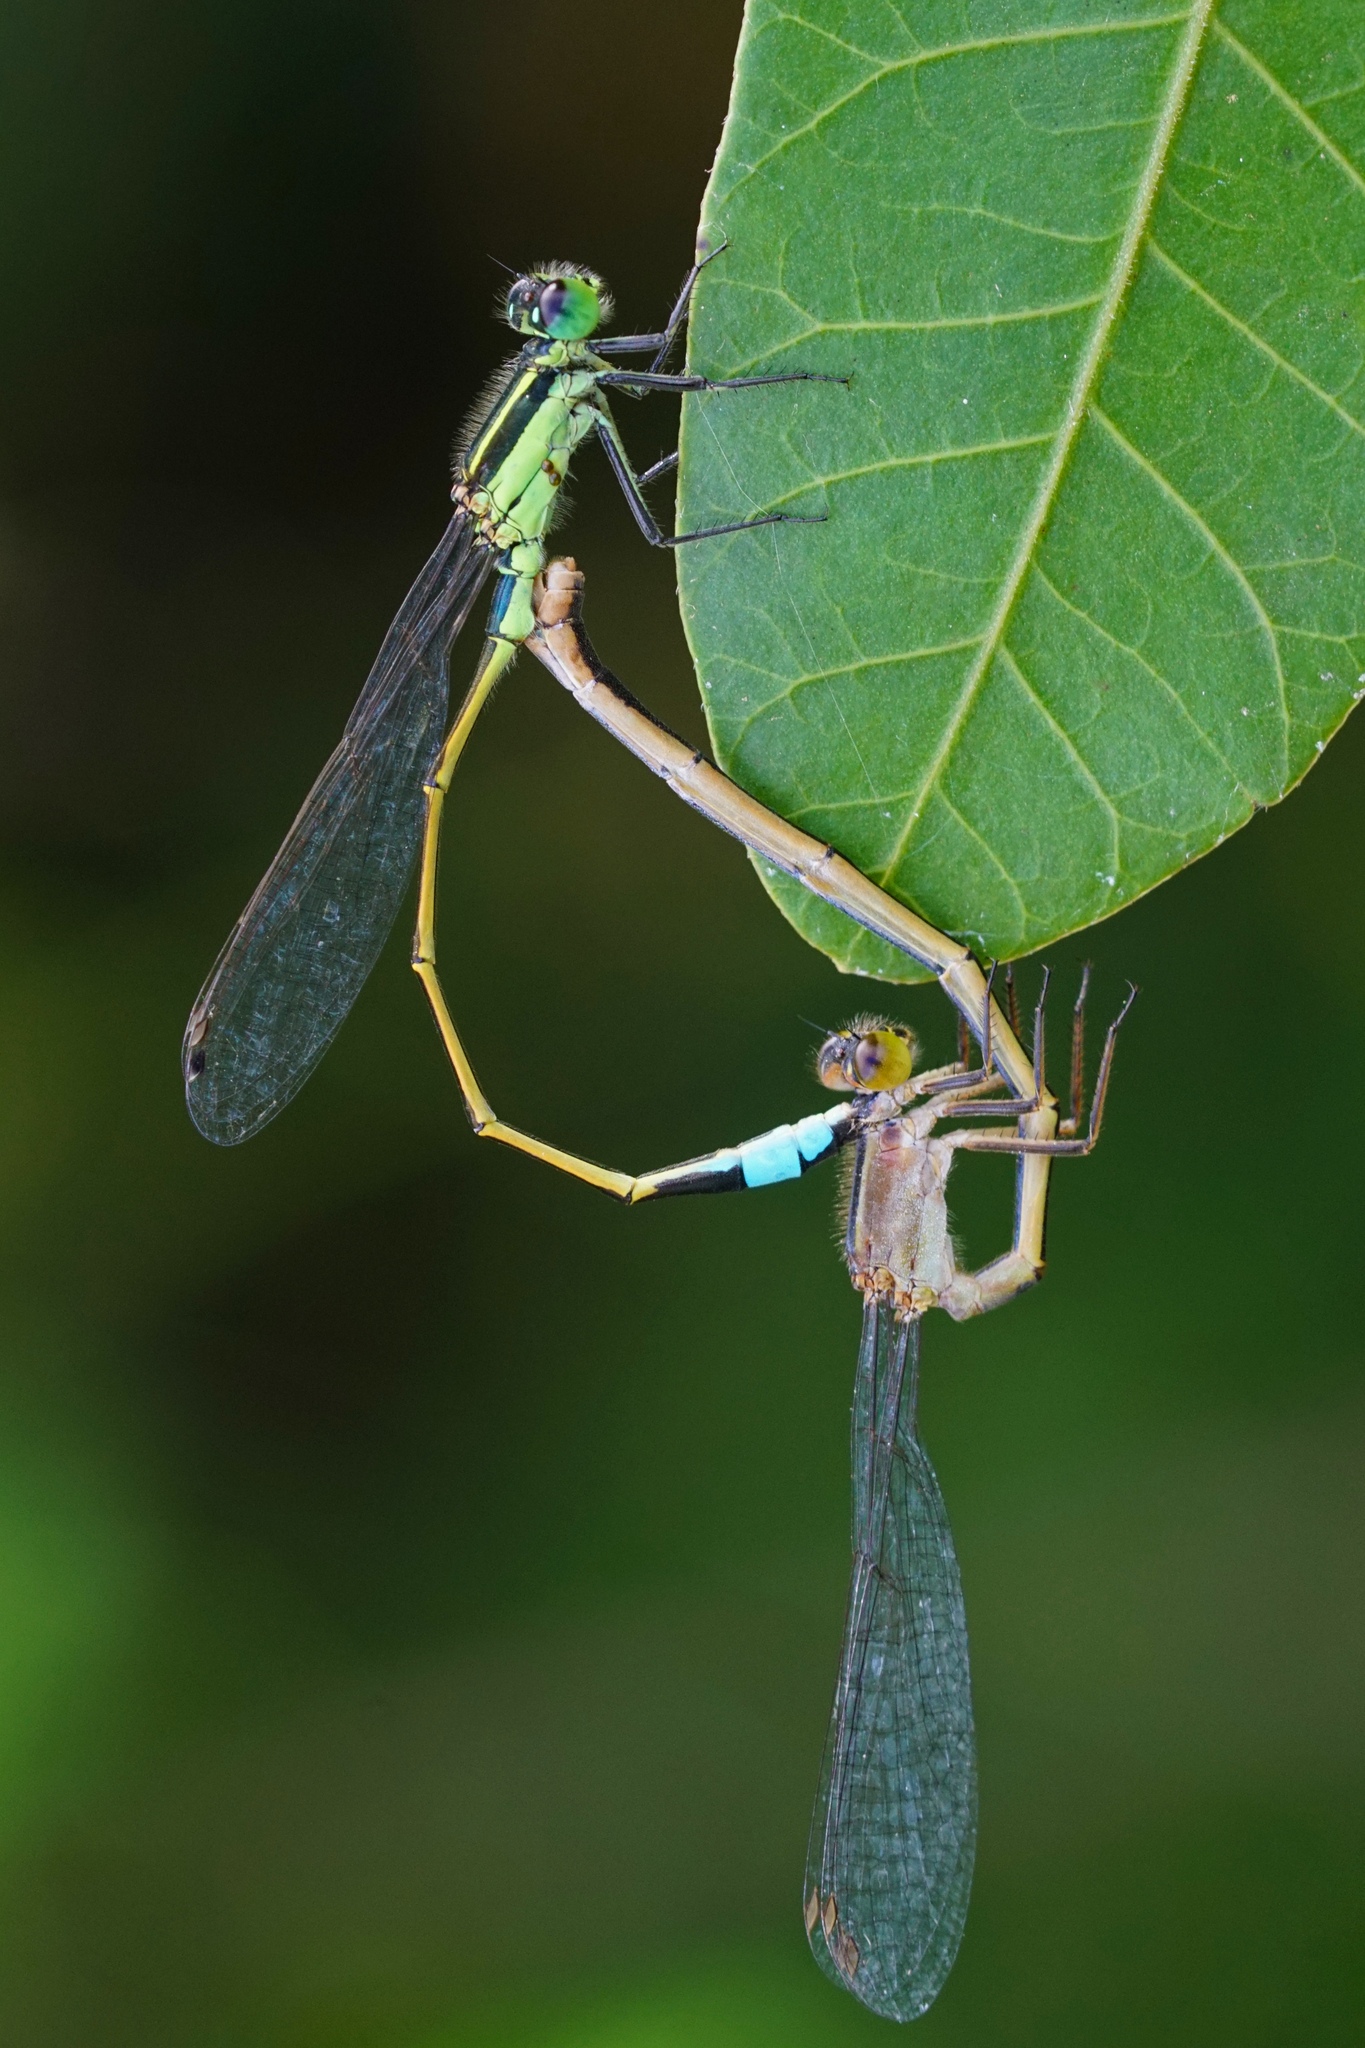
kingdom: Animalia
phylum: Arthropoda
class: Insecta
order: Odonata
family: Coenagrionidae
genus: Ischnura
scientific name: Ischnura ramburii
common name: Rambur's forktail
